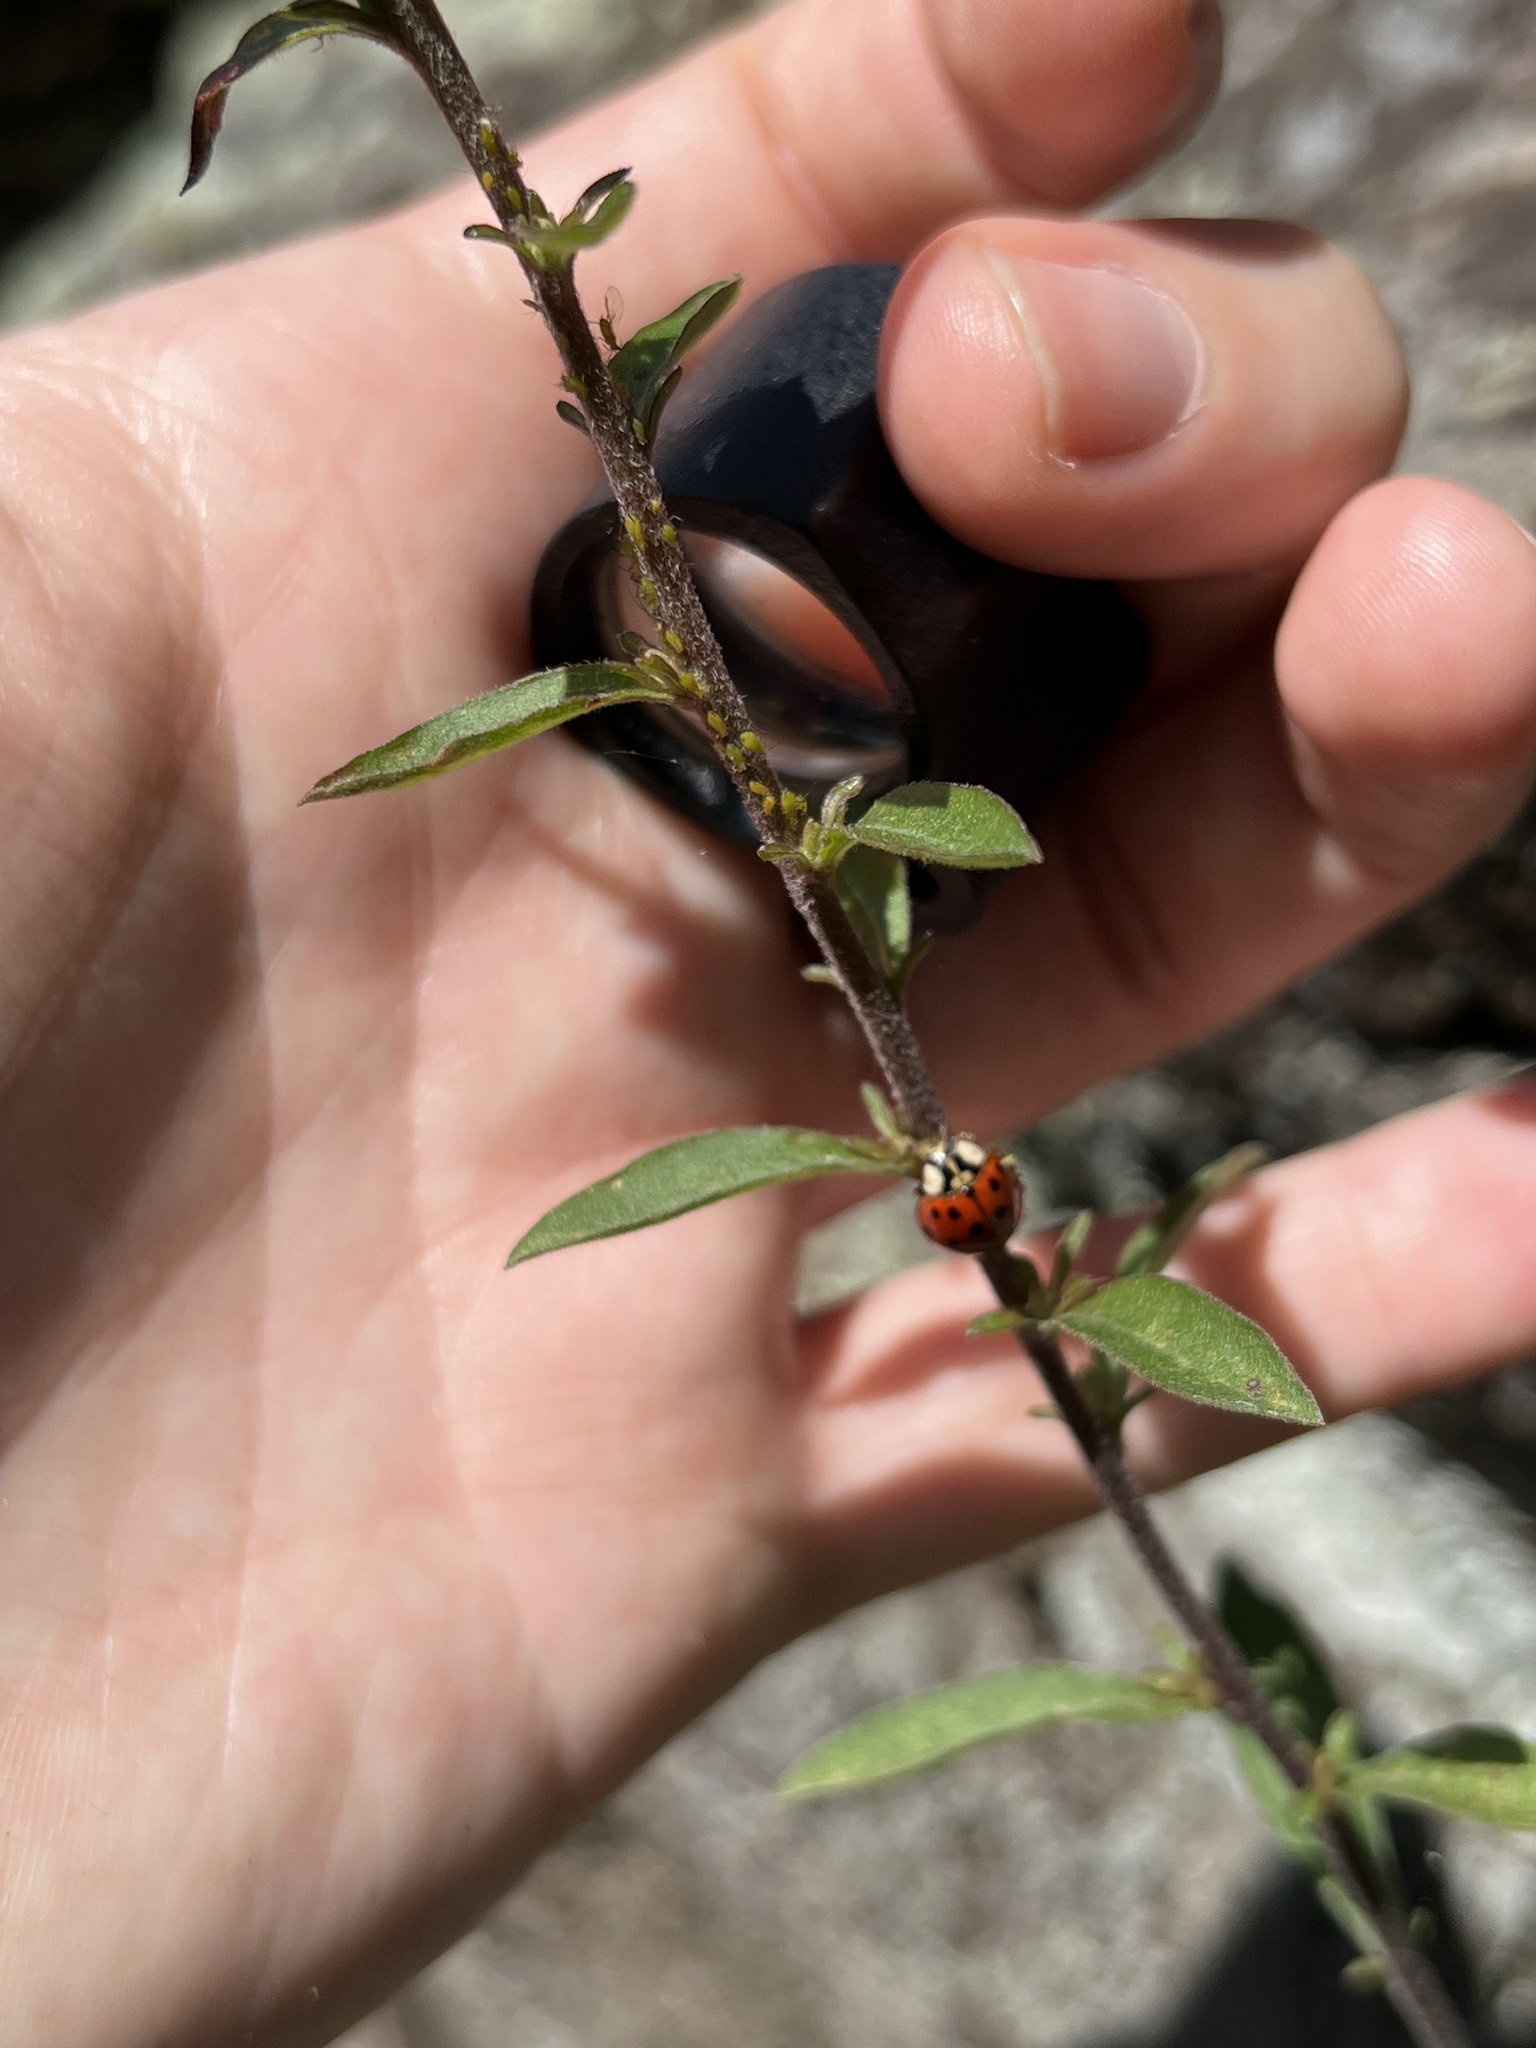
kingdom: Animalia
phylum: Arthropoda
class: Insecta
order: Coleoptera
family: Coccinellidae
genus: Harmonia
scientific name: Harmonia axyridis
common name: Harlequin ladybird
